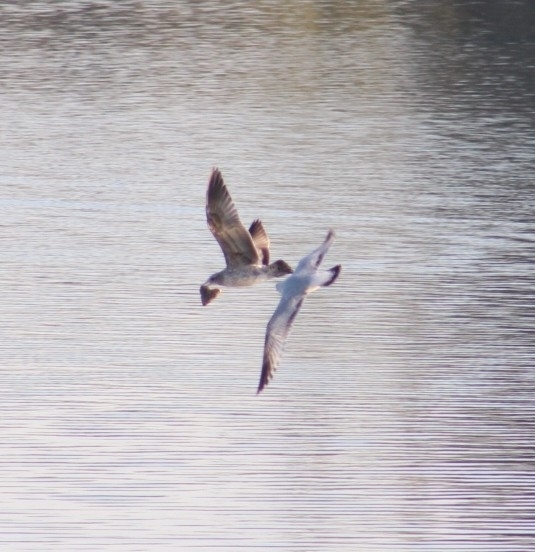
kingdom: Animalia
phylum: Chordata
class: Aves
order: Charadriiformes
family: Laridae
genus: Larus
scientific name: Larus californicus
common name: California gull
